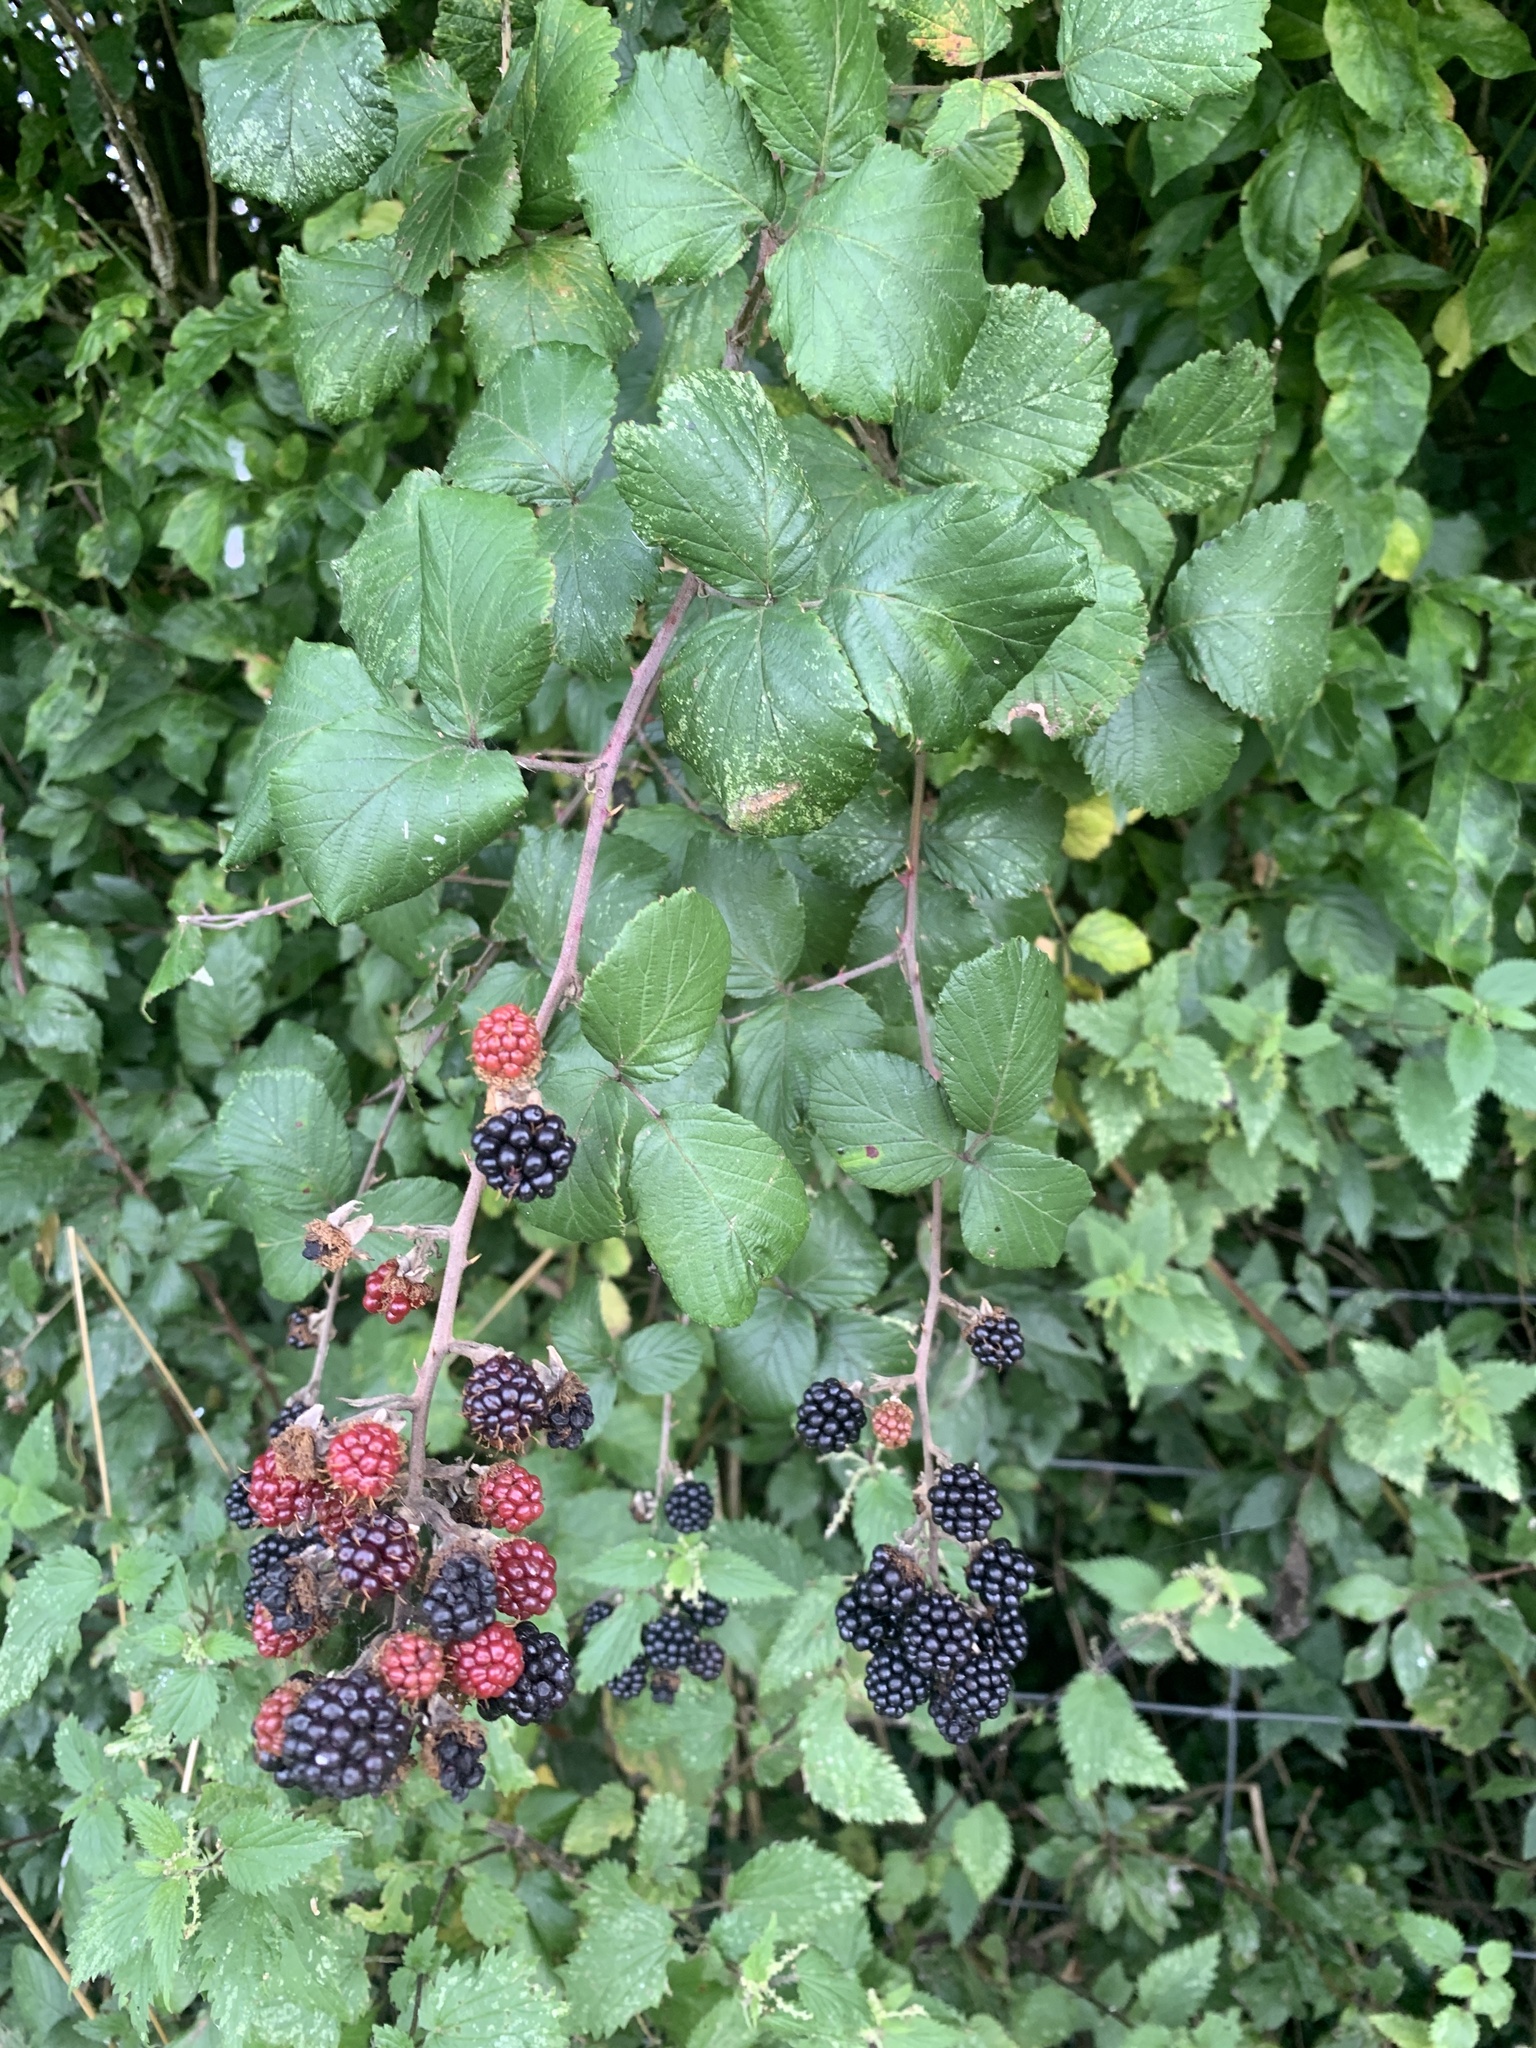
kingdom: Plantae
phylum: Tracheophyta
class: Magnoliopsida
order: Rosales
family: Rosaceae
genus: Rubus
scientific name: Rubus fruticosus
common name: Blackberry, bramble
